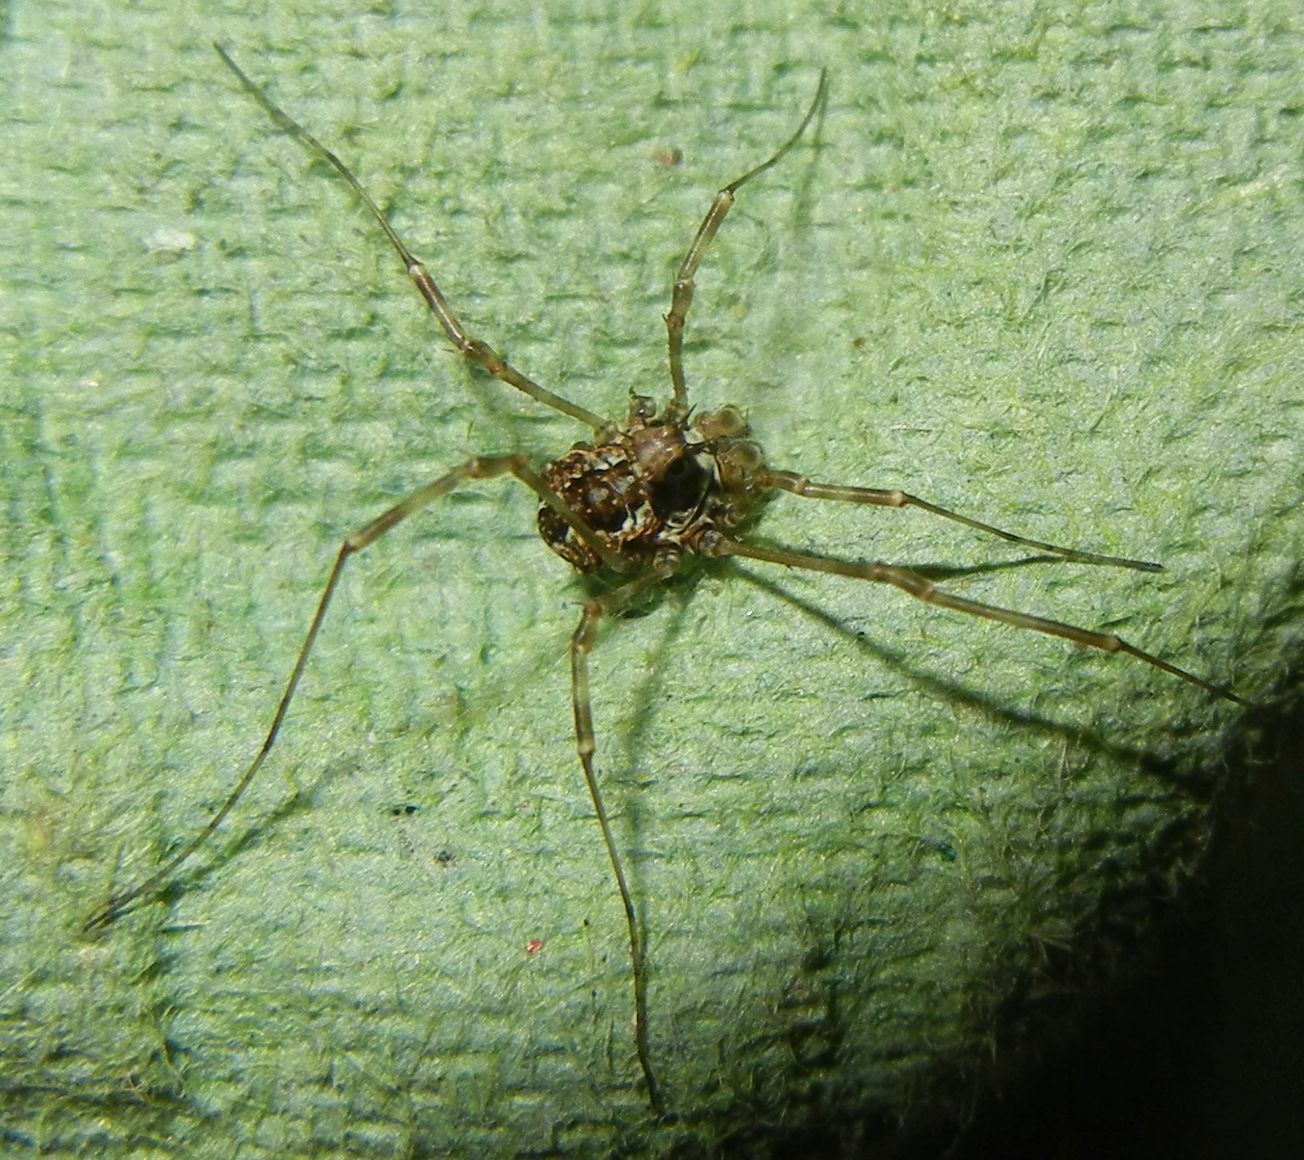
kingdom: Animalia
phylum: Arthropoda
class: Arachnida
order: Opiliones
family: Phalangiidae
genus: Megabunus
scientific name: Megabunus diadema
